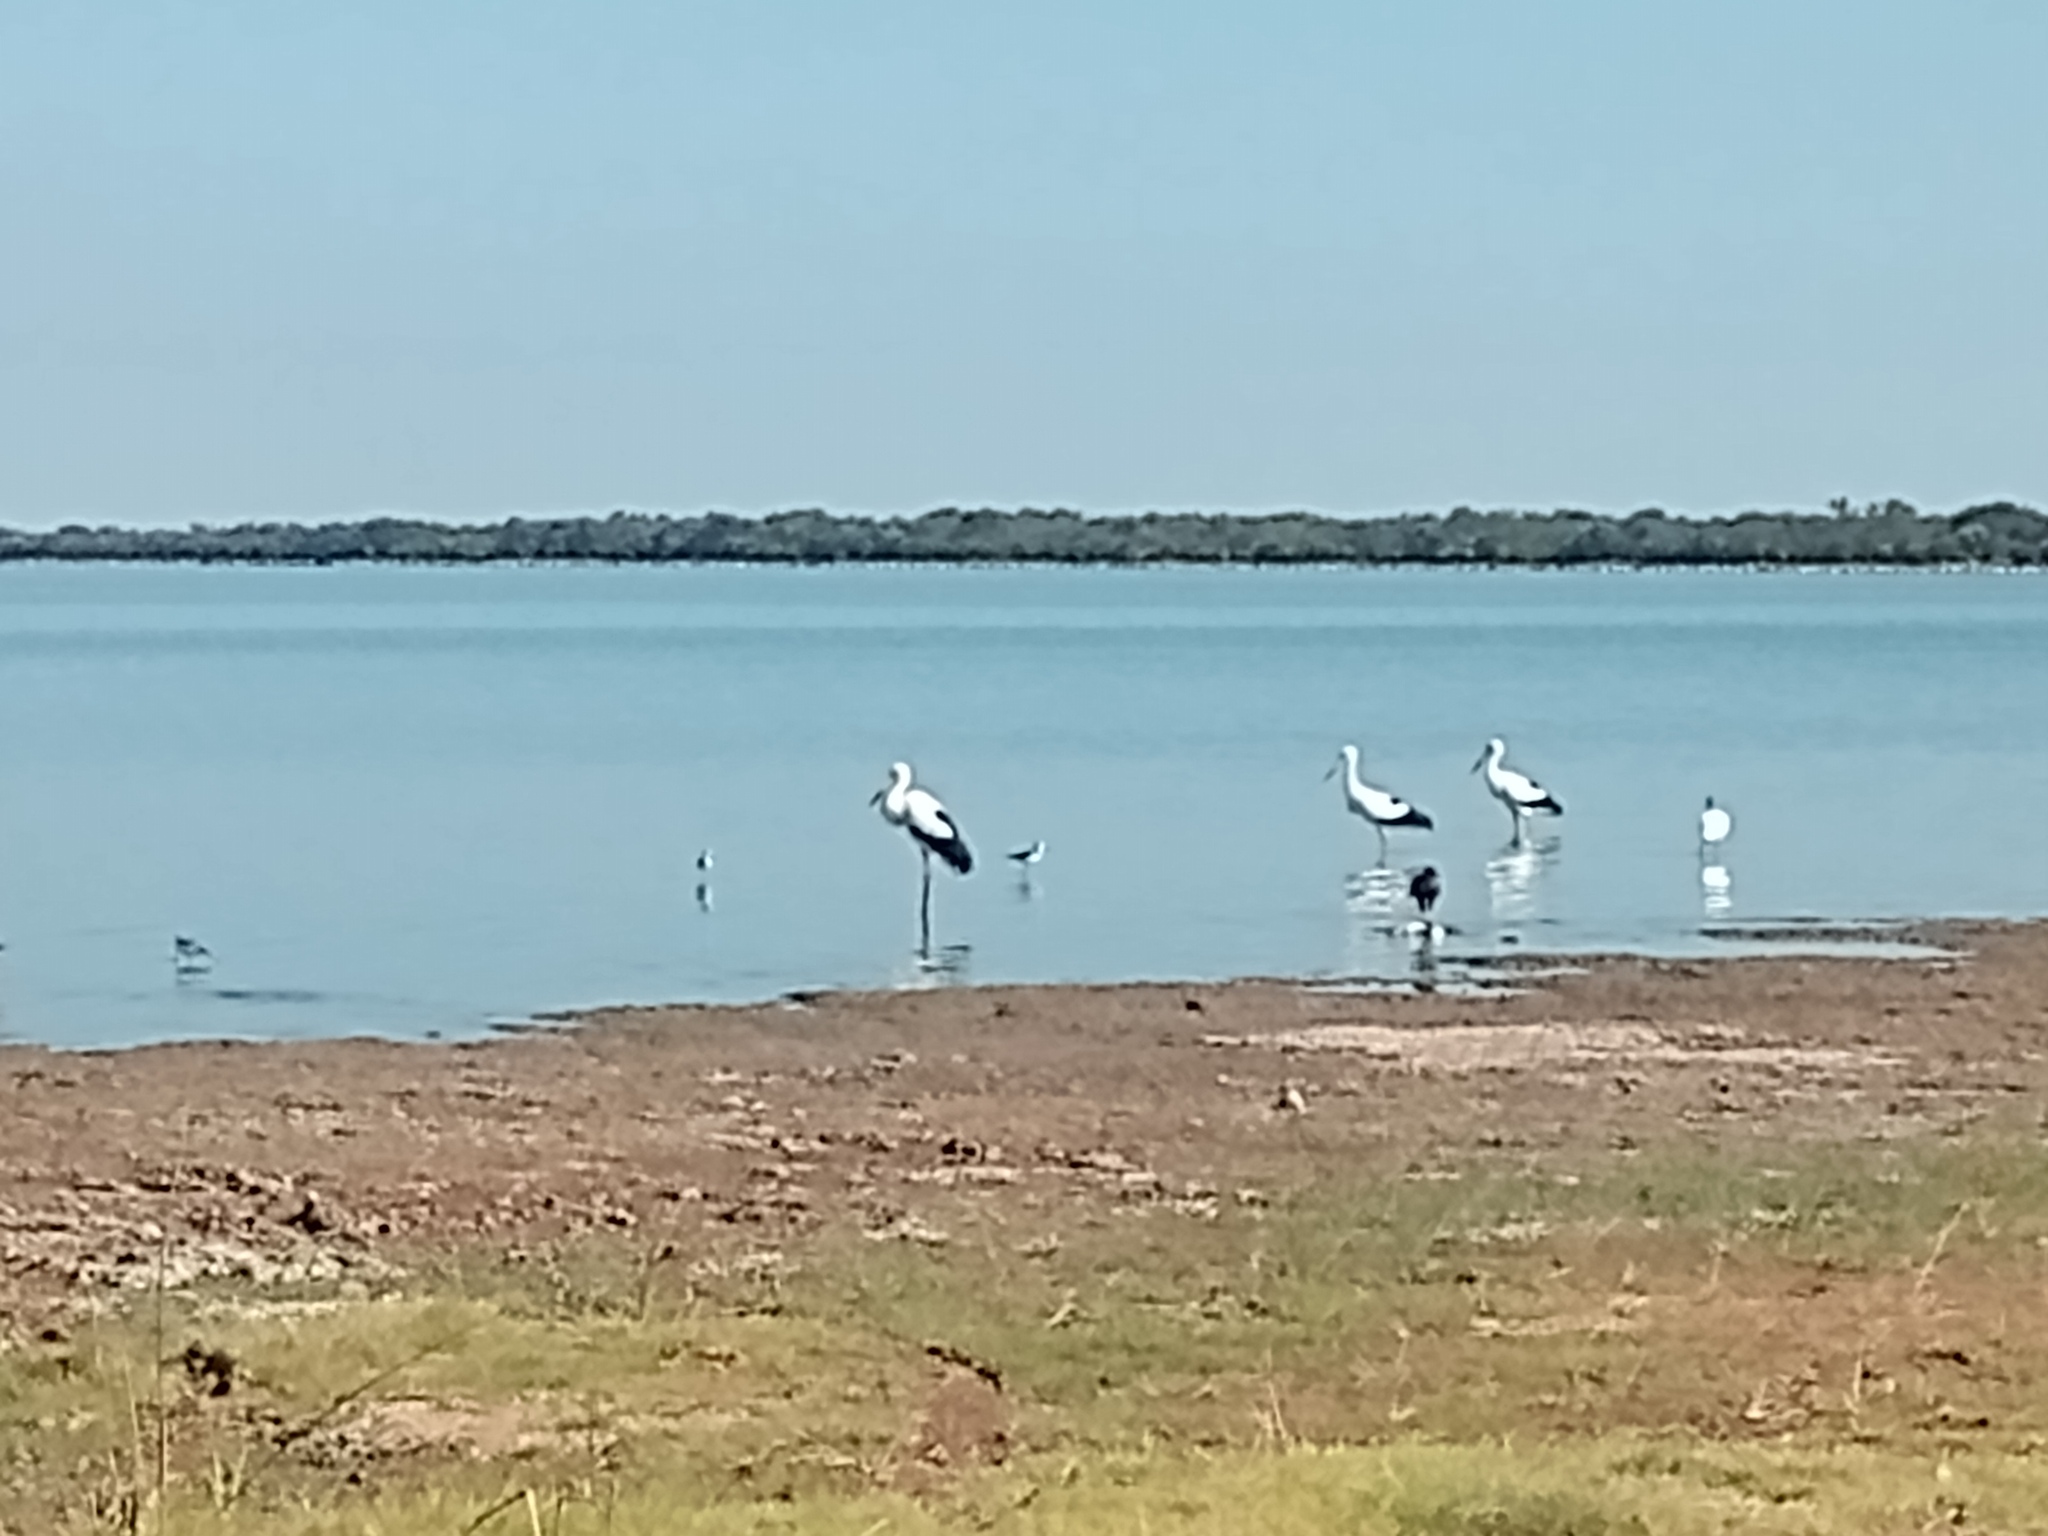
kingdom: Animalia
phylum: Chordata
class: Aves
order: Ciconiiformes
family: Ciconiidae
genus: Ciconia
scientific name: Ciconia maguari
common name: Maguari stork
